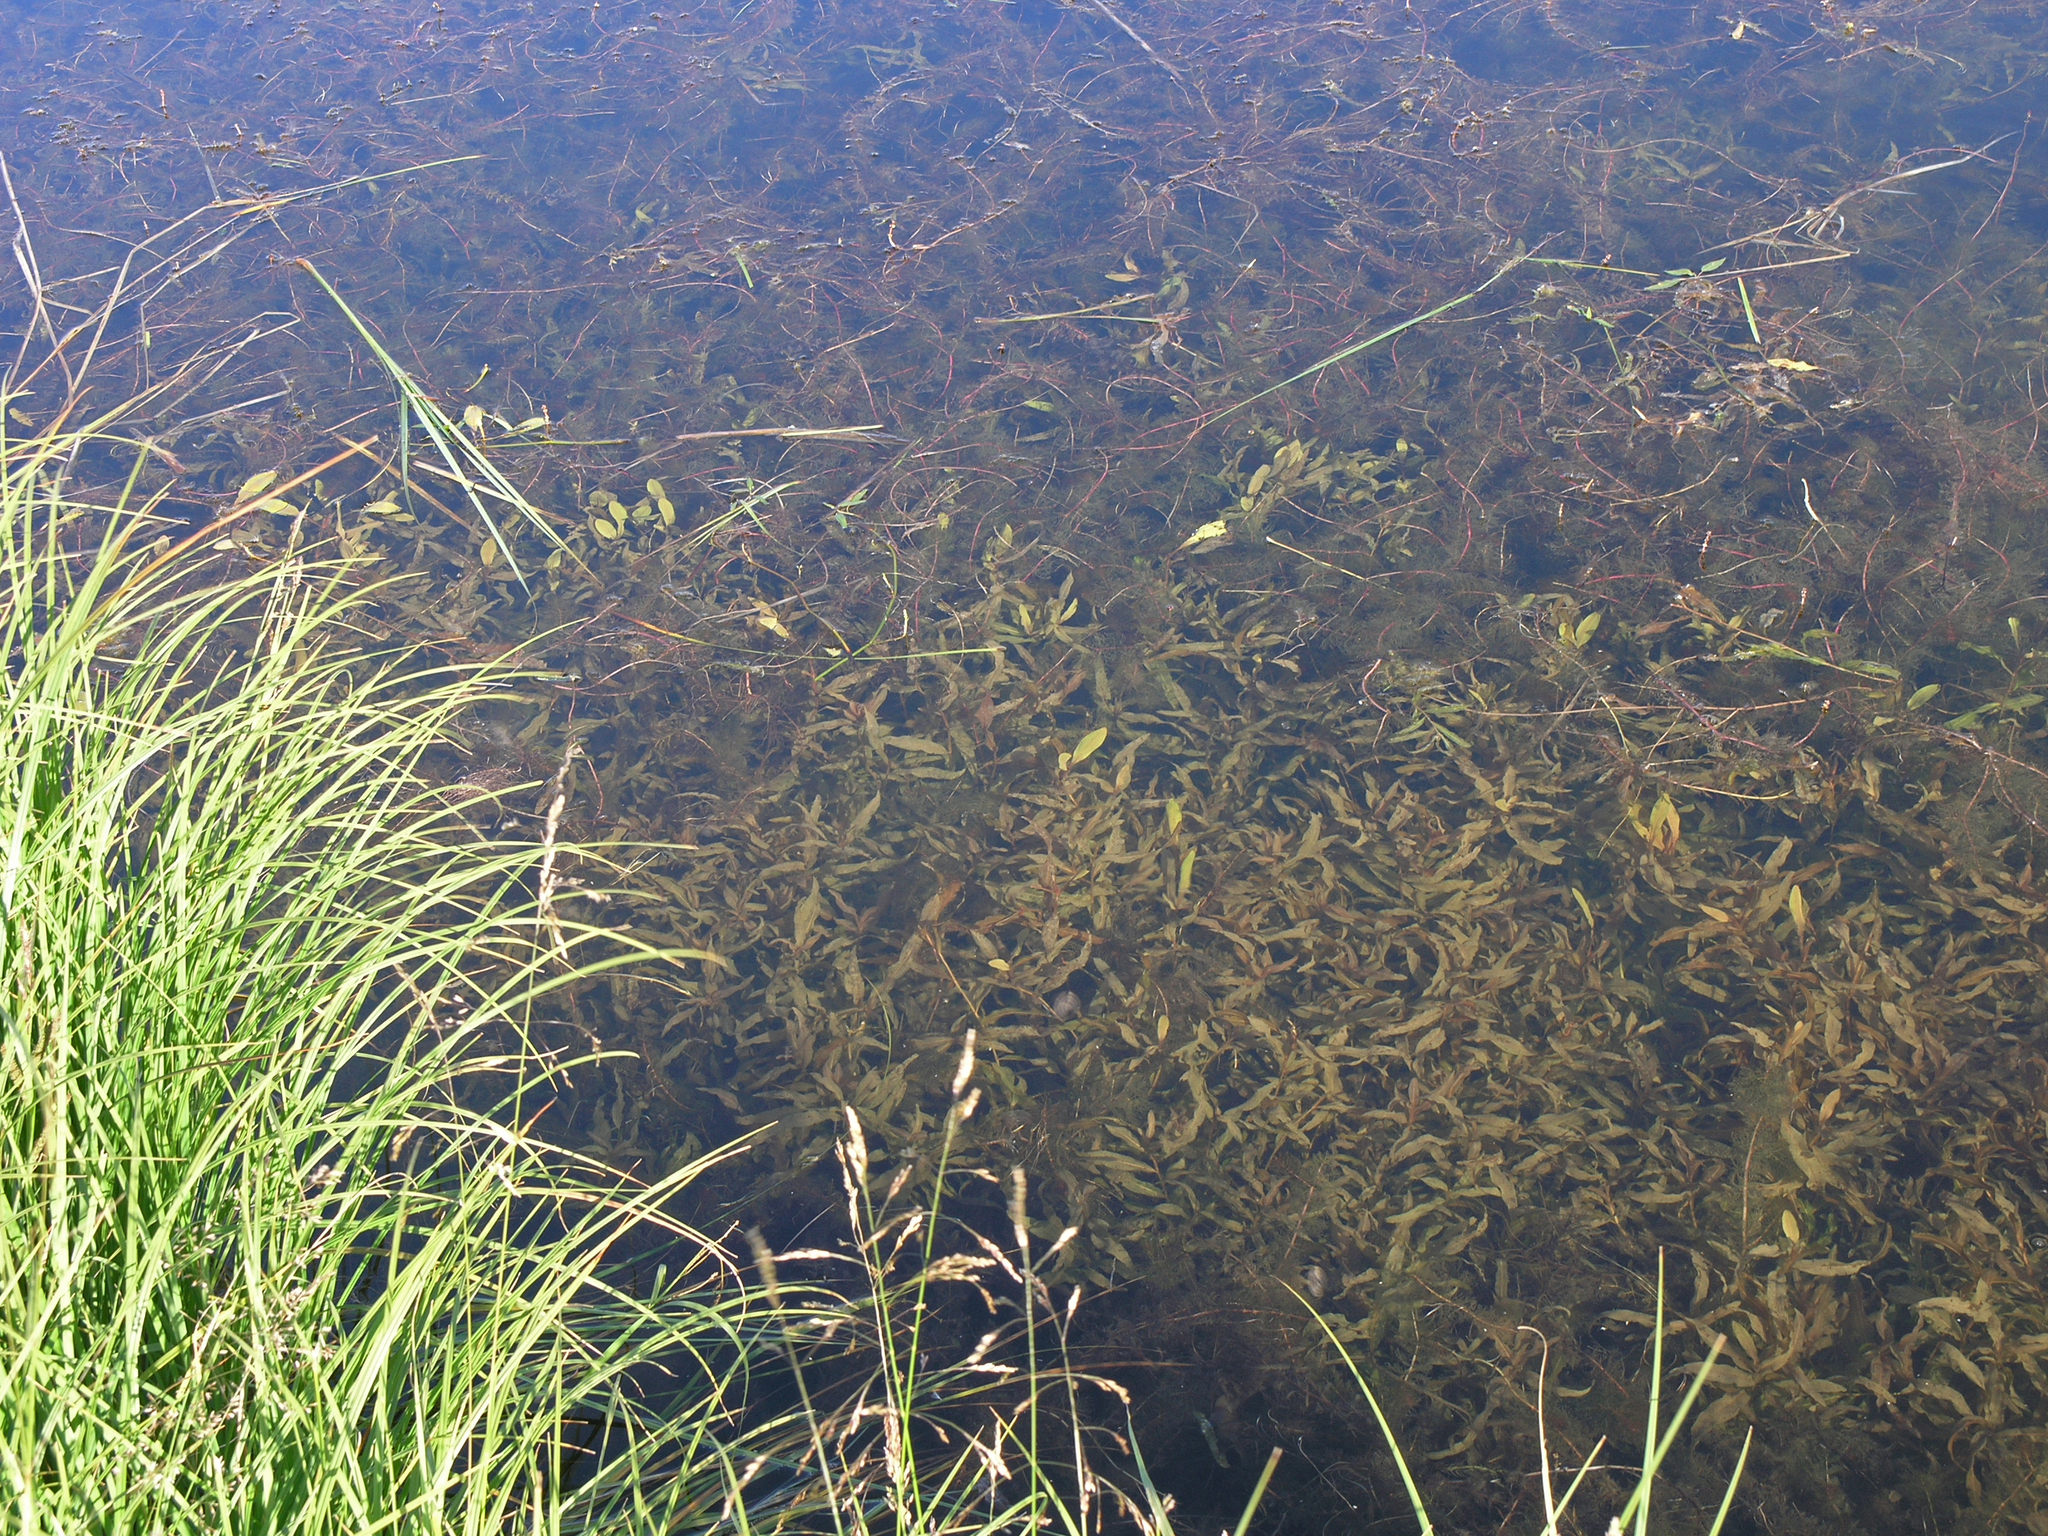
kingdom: Plantae
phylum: Tracheophyta
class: Liliopsida
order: Alismatales
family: Potamogetonaceae
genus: Potamogeton
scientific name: Potamogeton alpinus
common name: Red pondweed
